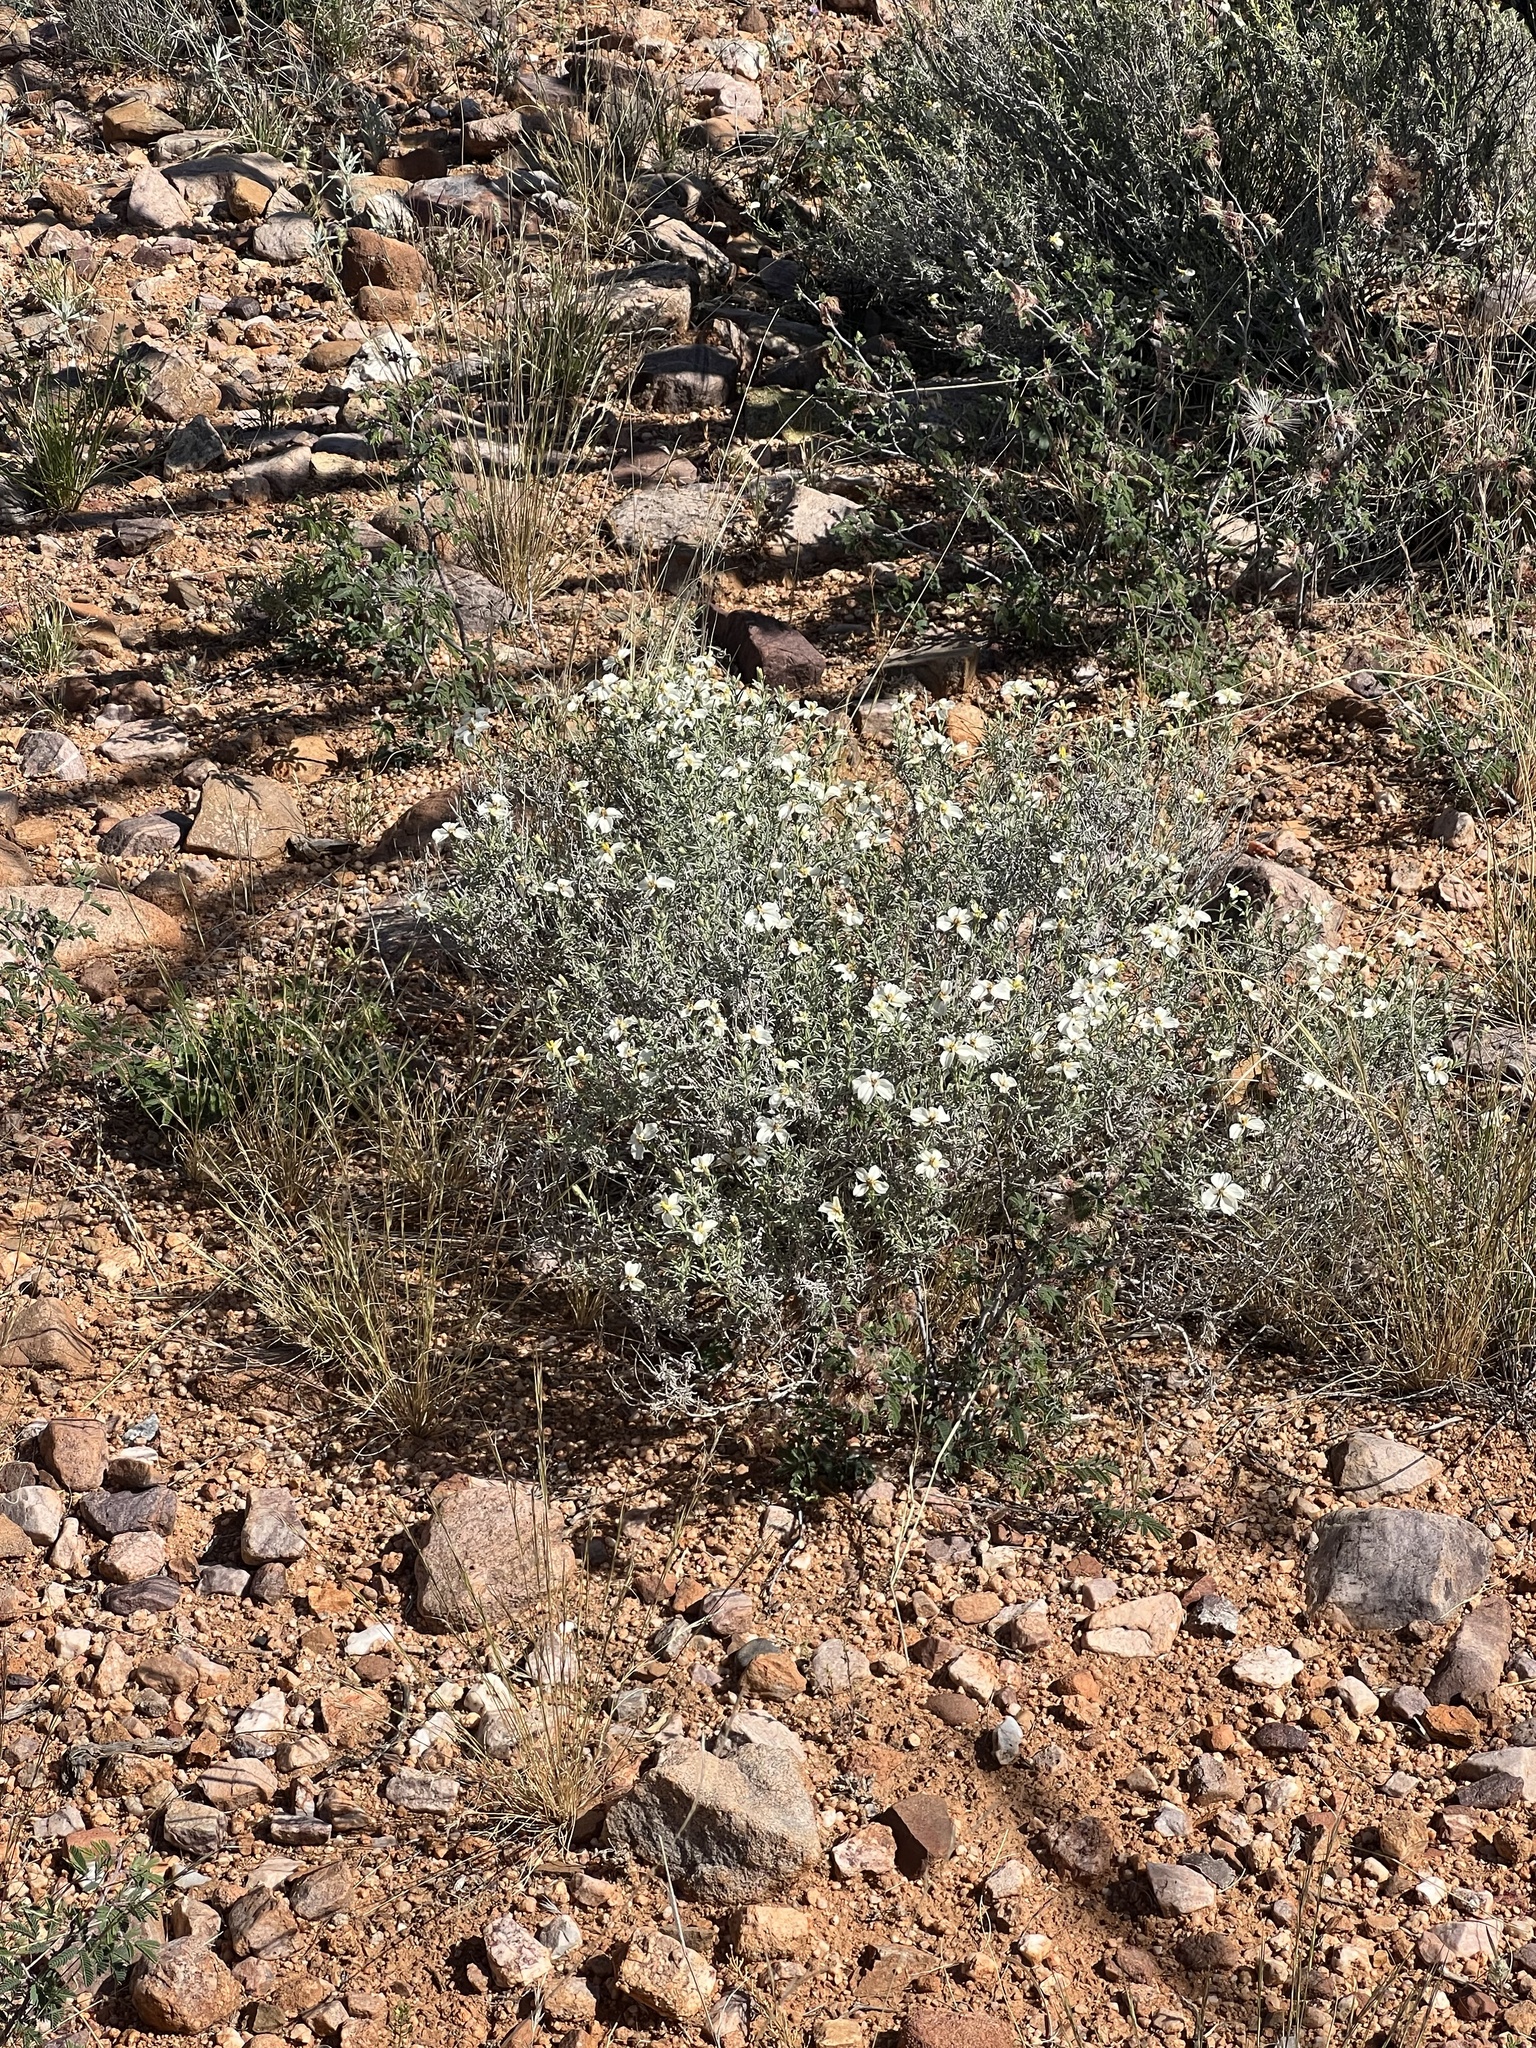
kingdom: Plantae
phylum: Tracheophyta
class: Magnoliopsida
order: Asterales
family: Asteraceae
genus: Zinnia
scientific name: Zinnia acerosa
